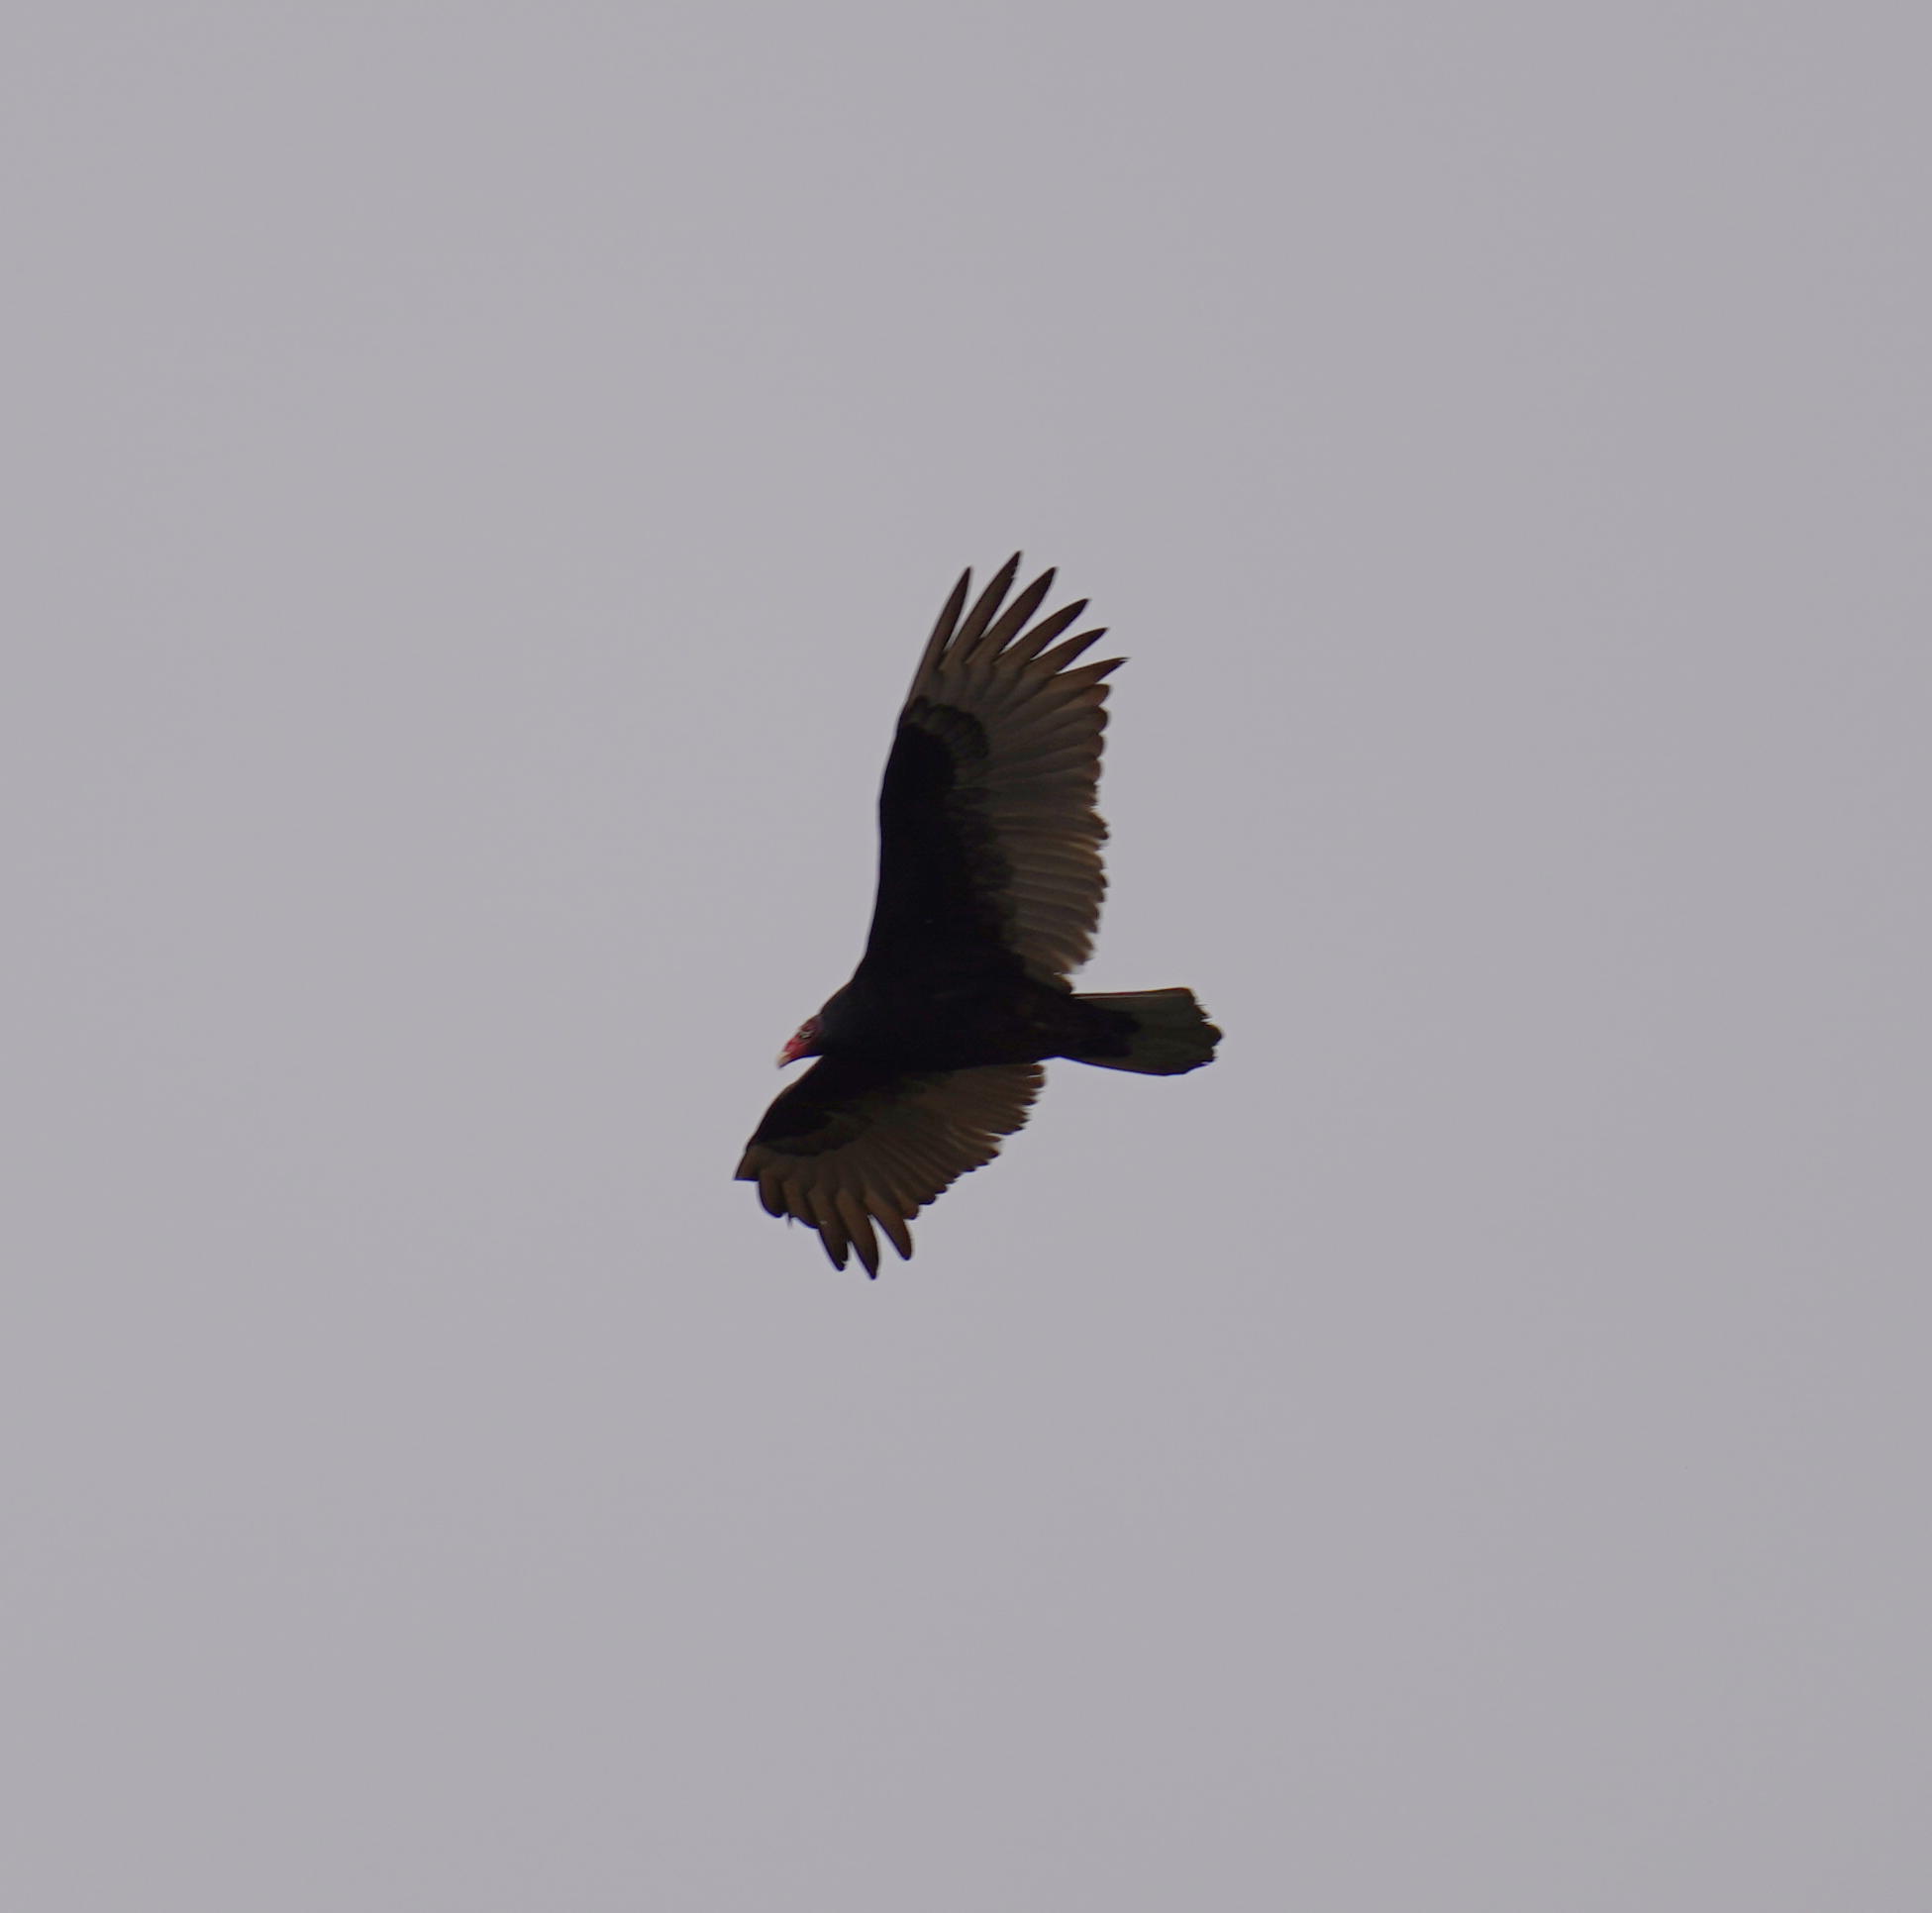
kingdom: Animalia
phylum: Chordata
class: Aves
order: Accipitriformes
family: Cathartidae
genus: Cathartes
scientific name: Cathartes aura
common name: Turkey vulture
